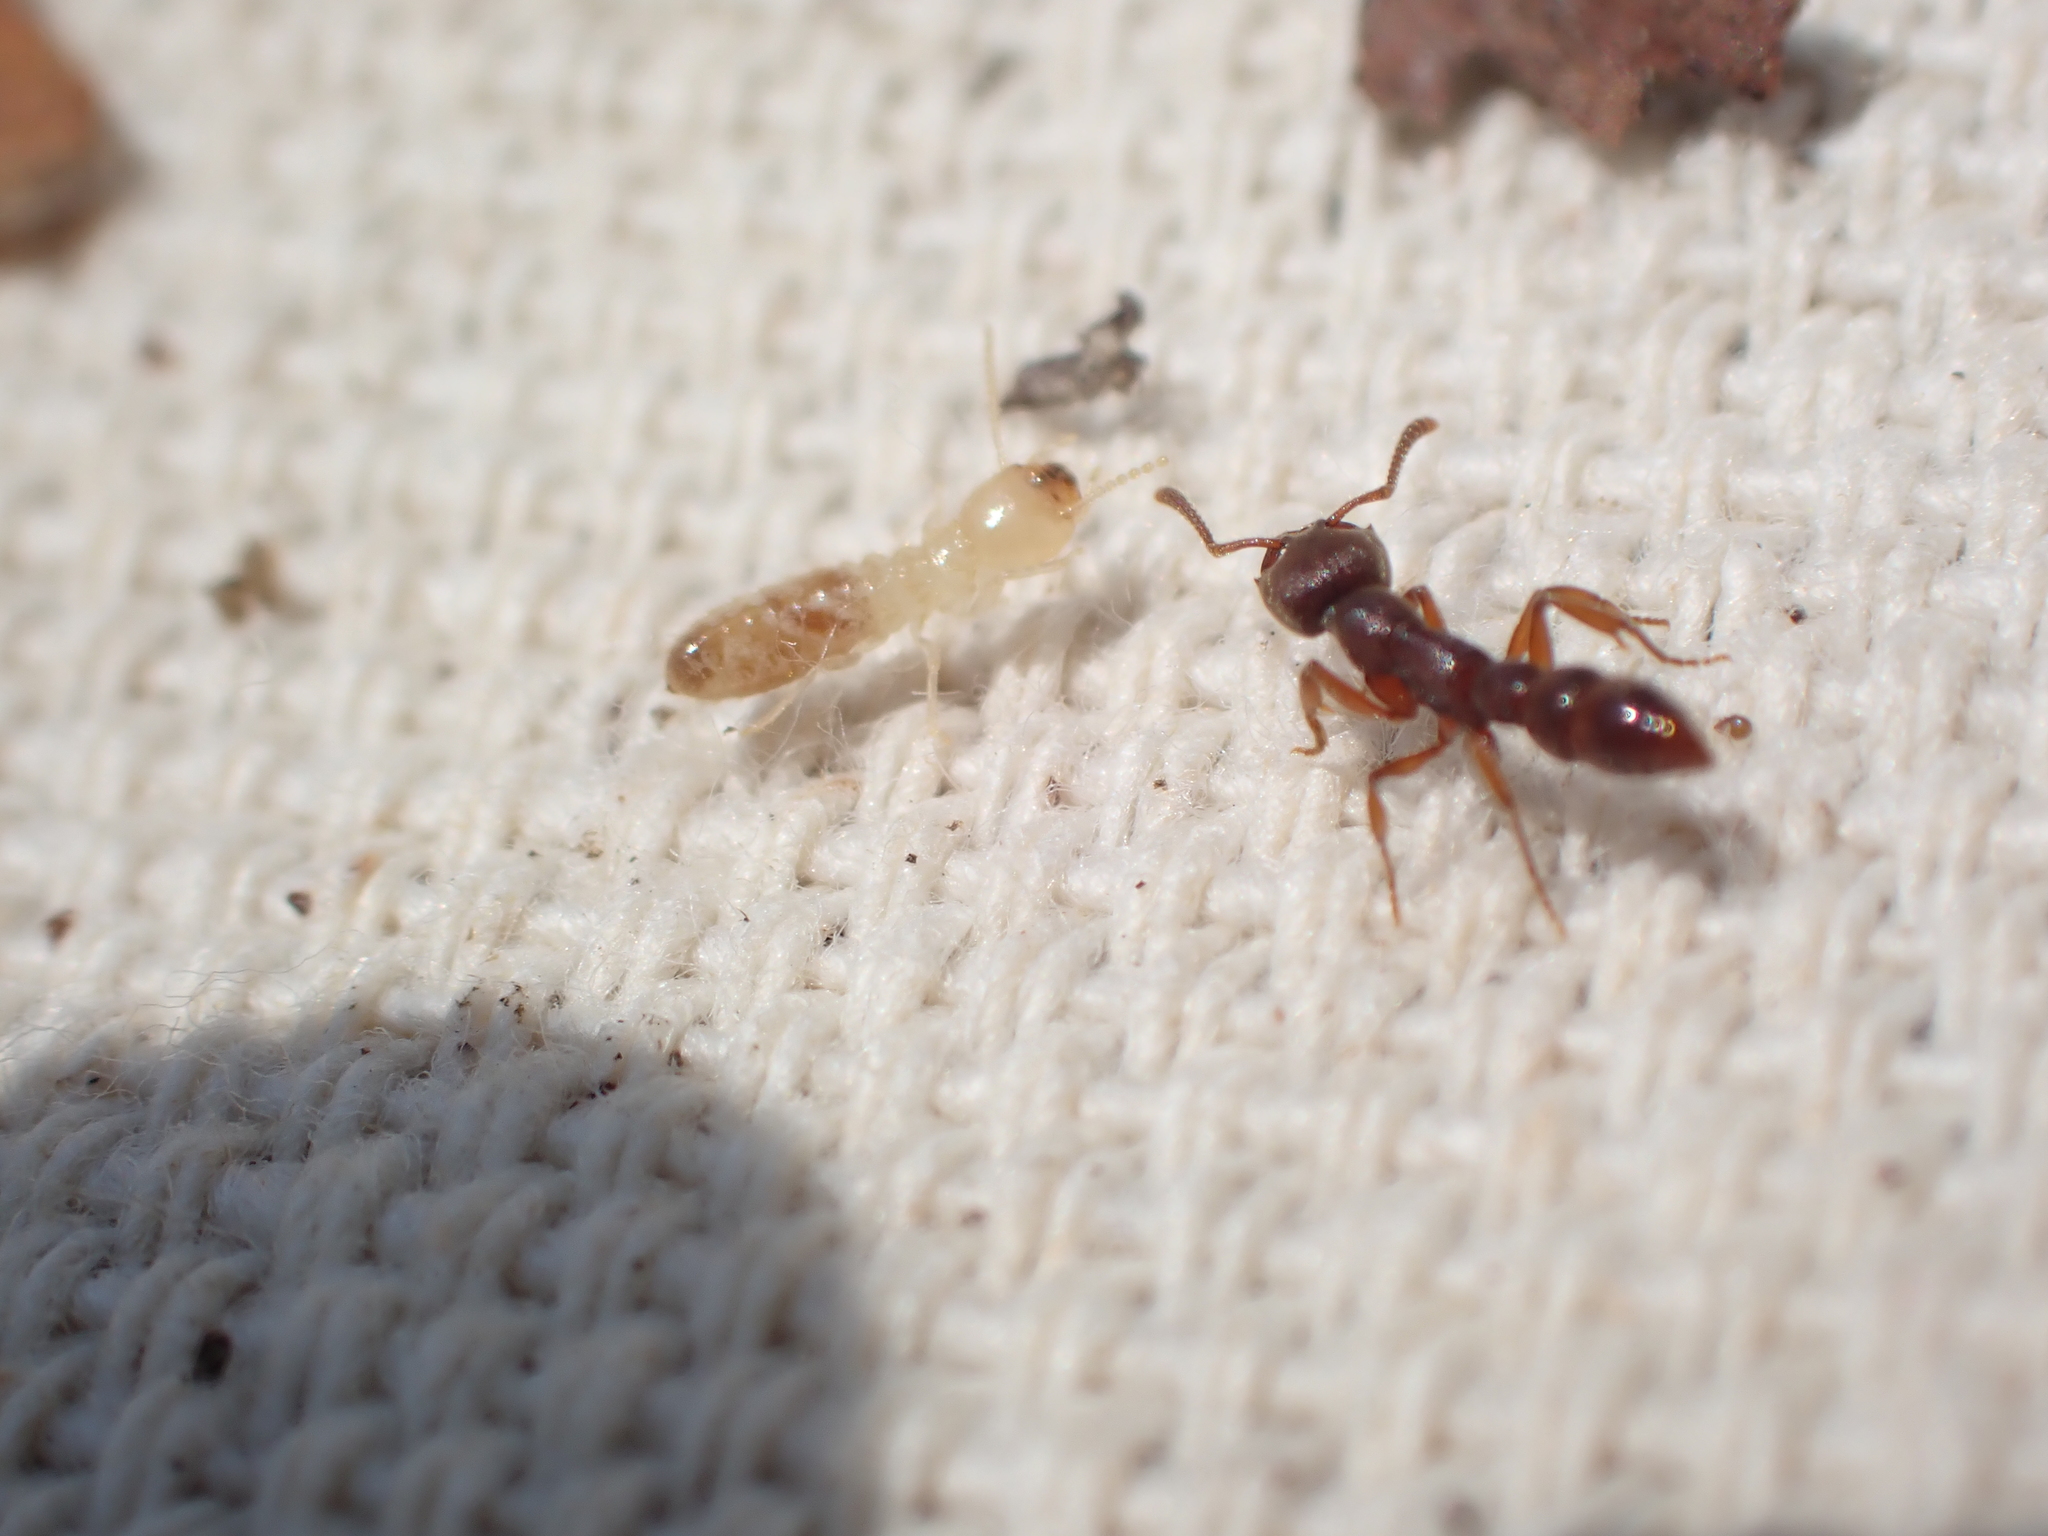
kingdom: Animalia
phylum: Arthropoda
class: Insecta
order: Hymenoptera
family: Formicidae
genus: Stigmatomma
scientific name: Stigmatomma pallipes
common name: Vampire ant
